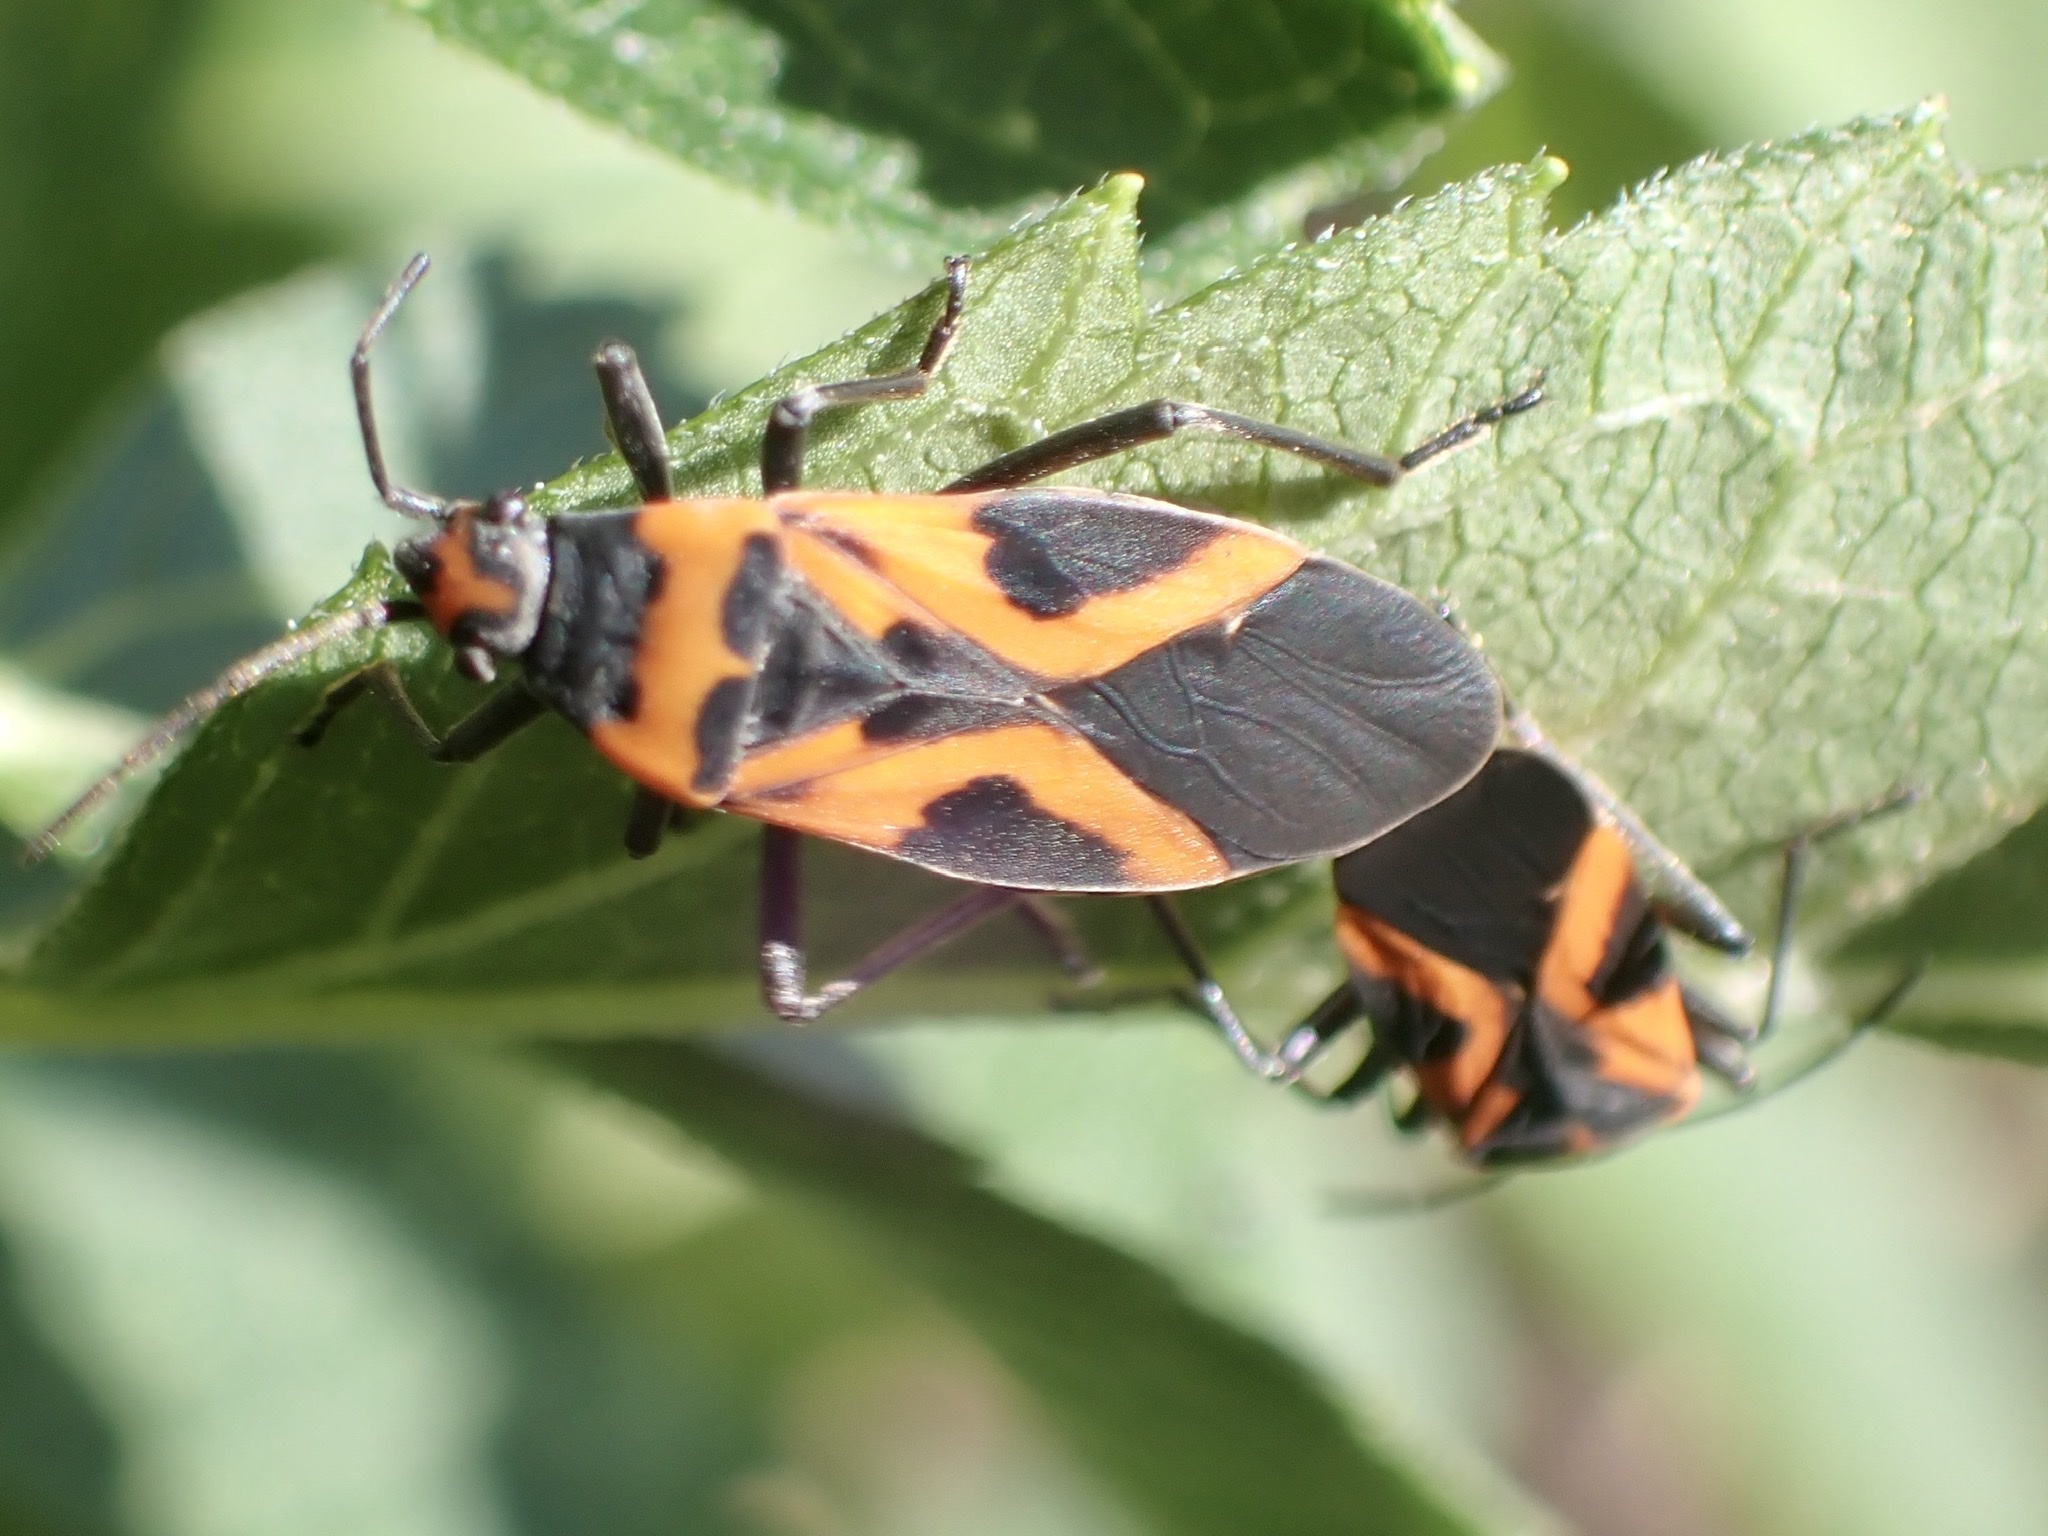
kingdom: Animalia
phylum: Arthropoda
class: Insecta
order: Hemiptera
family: Lygaeidae
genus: Lygaeus
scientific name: Lygaeus turcicus
